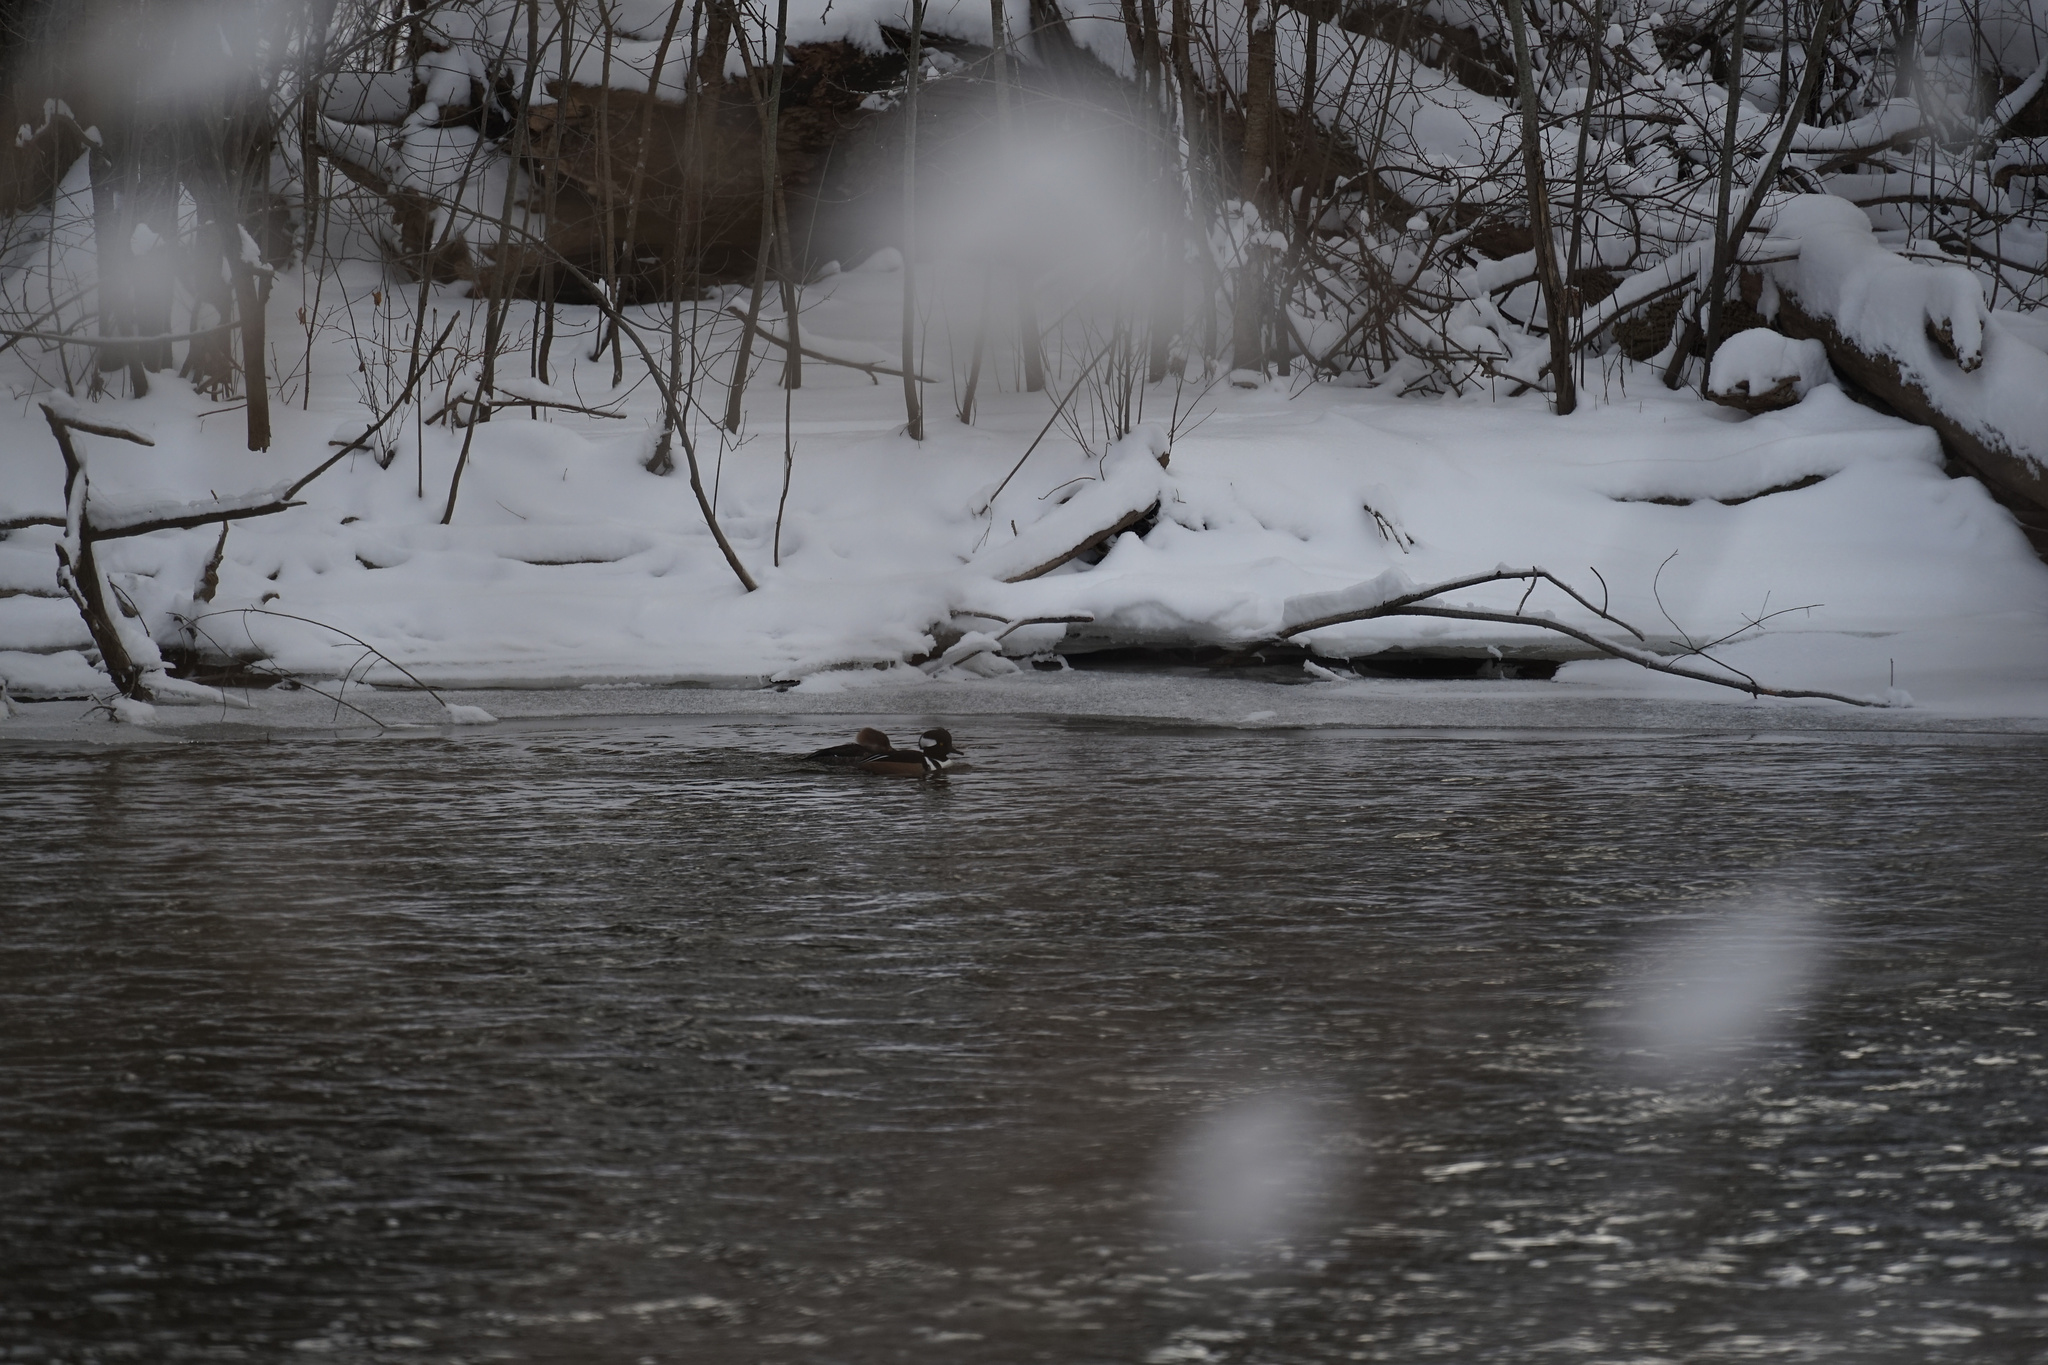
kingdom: Animalia
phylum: Chordata
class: Aves
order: Anseriformes
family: Anatidae
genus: Lophodytes
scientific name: Lophodytes cucullatus
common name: Hooded merganser
